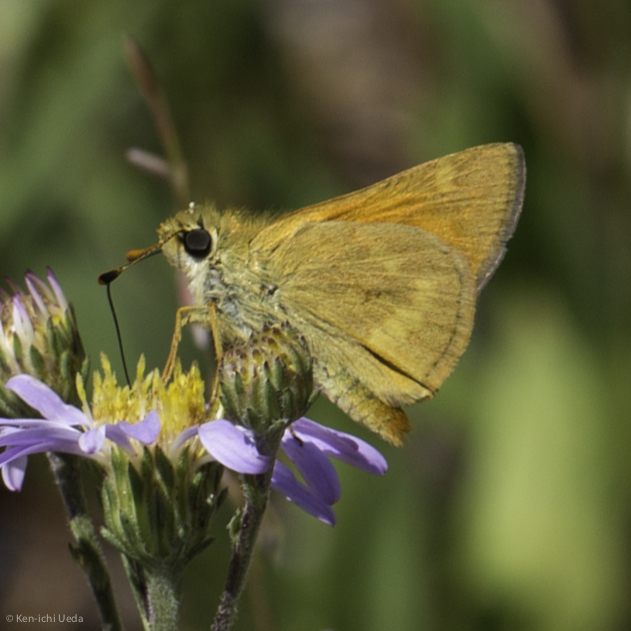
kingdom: Animalia
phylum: Arthropoda
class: Insecta
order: Lepidoptera
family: Hesperiidae
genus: Ochlodes
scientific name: Ochlodes sylvanoides
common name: Woodland skipper
